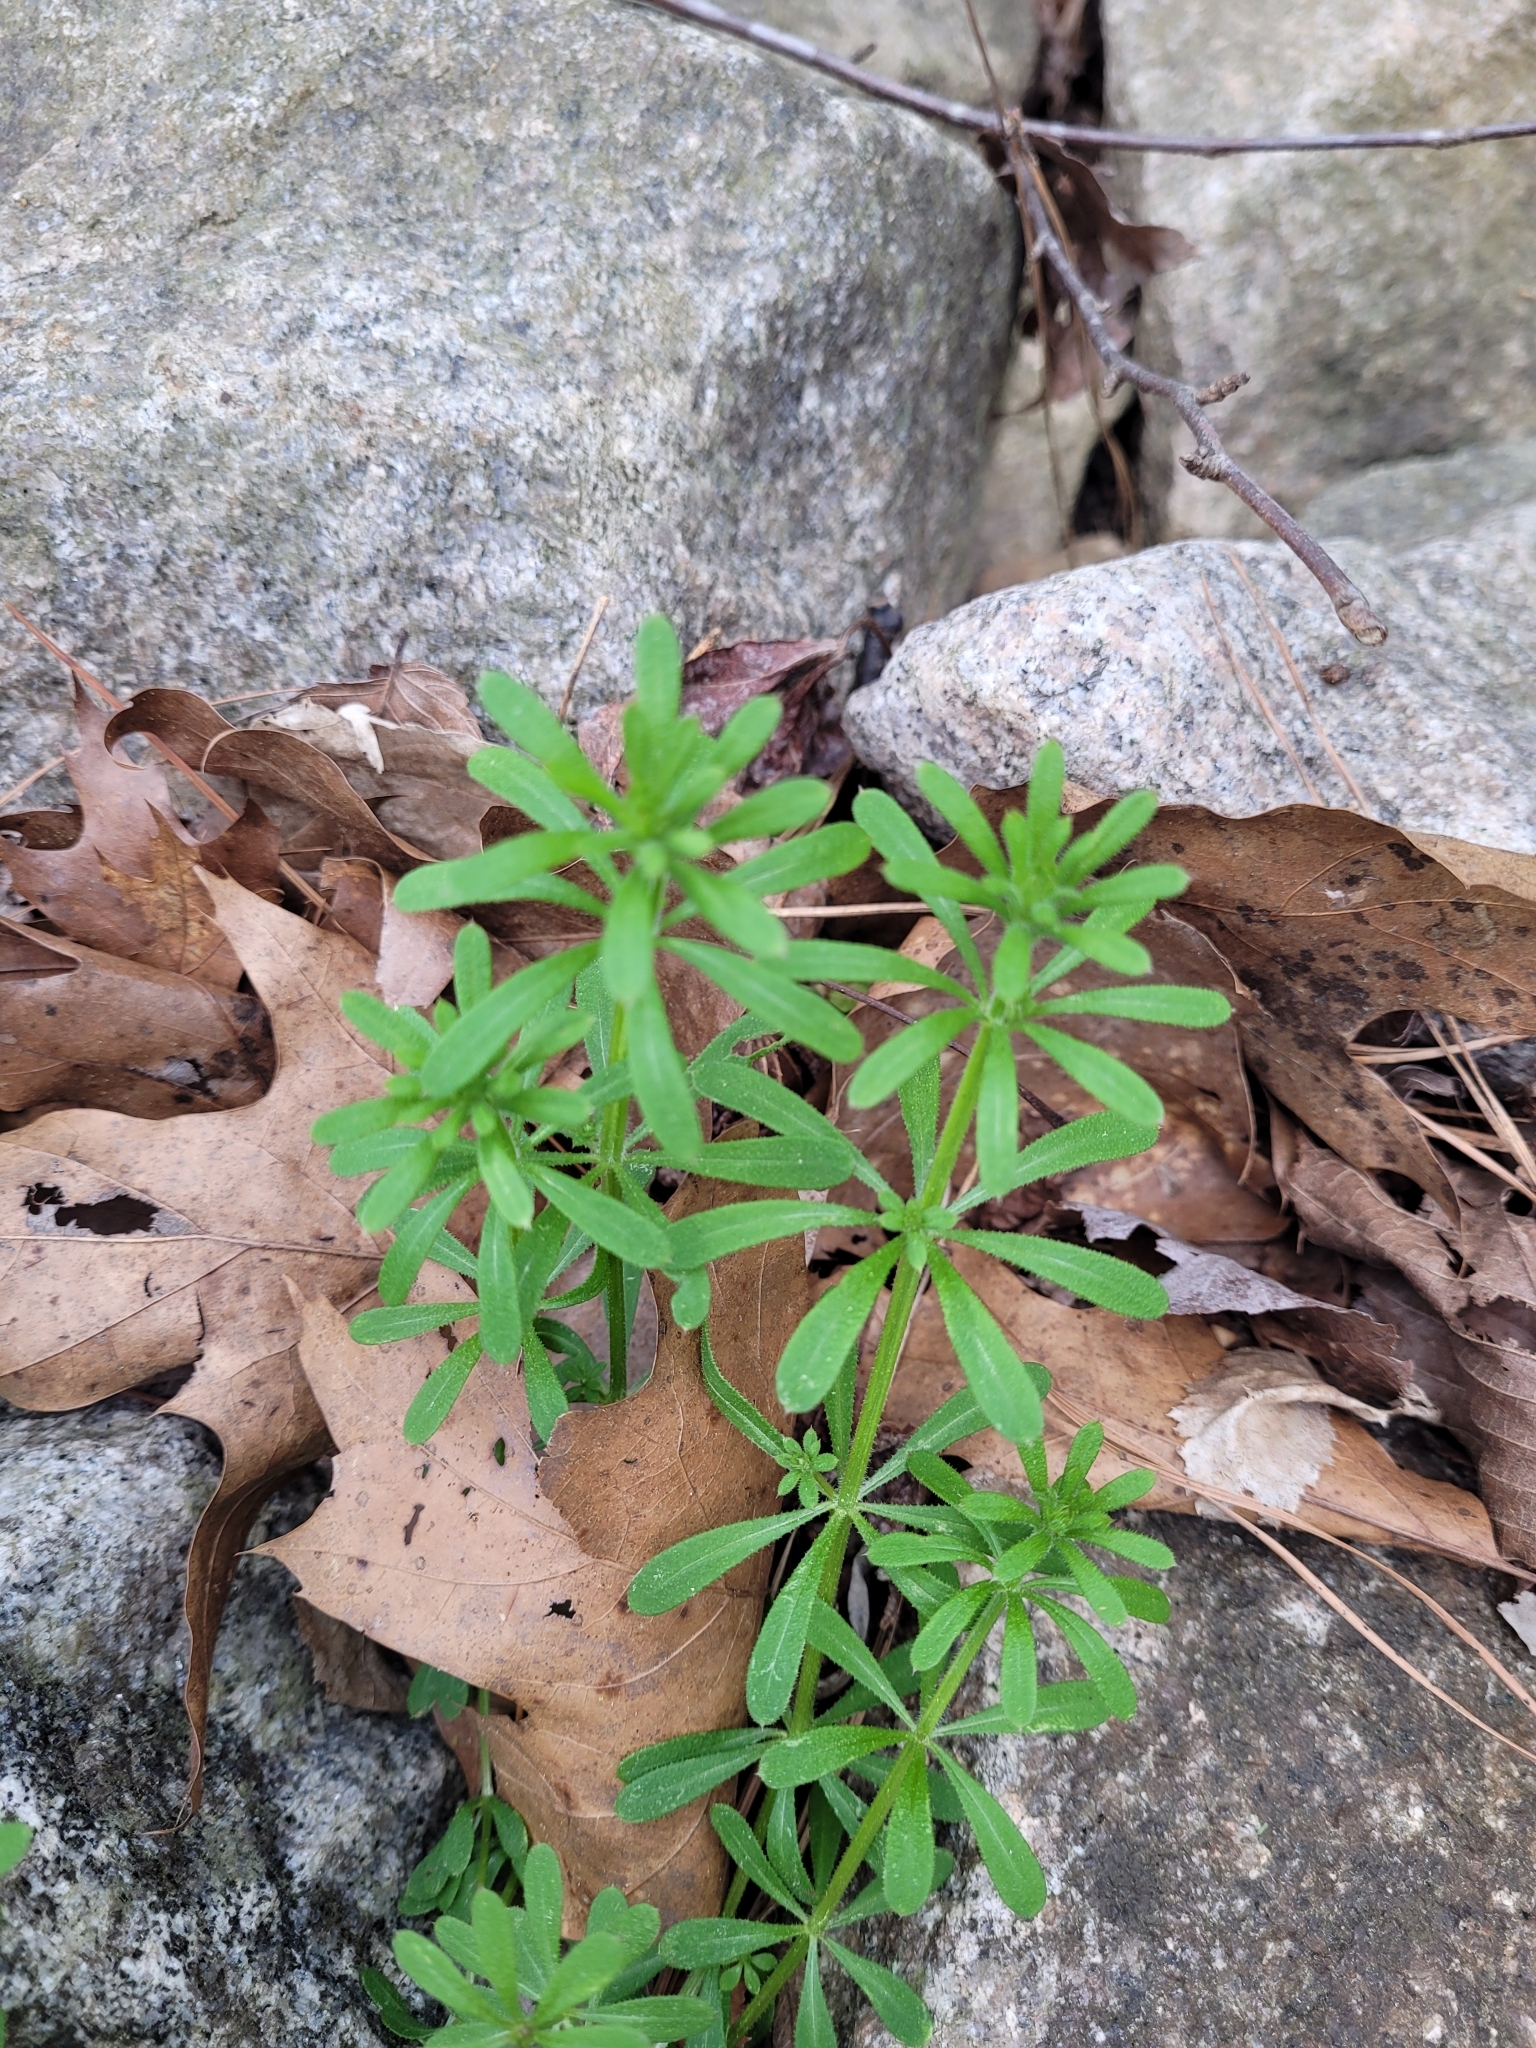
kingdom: Plantae
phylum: Tracheophyta
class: Magnoliopsida
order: Gentianales
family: Rubiaceae
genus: Galium
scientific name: Galium aparine
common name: Cleavers
